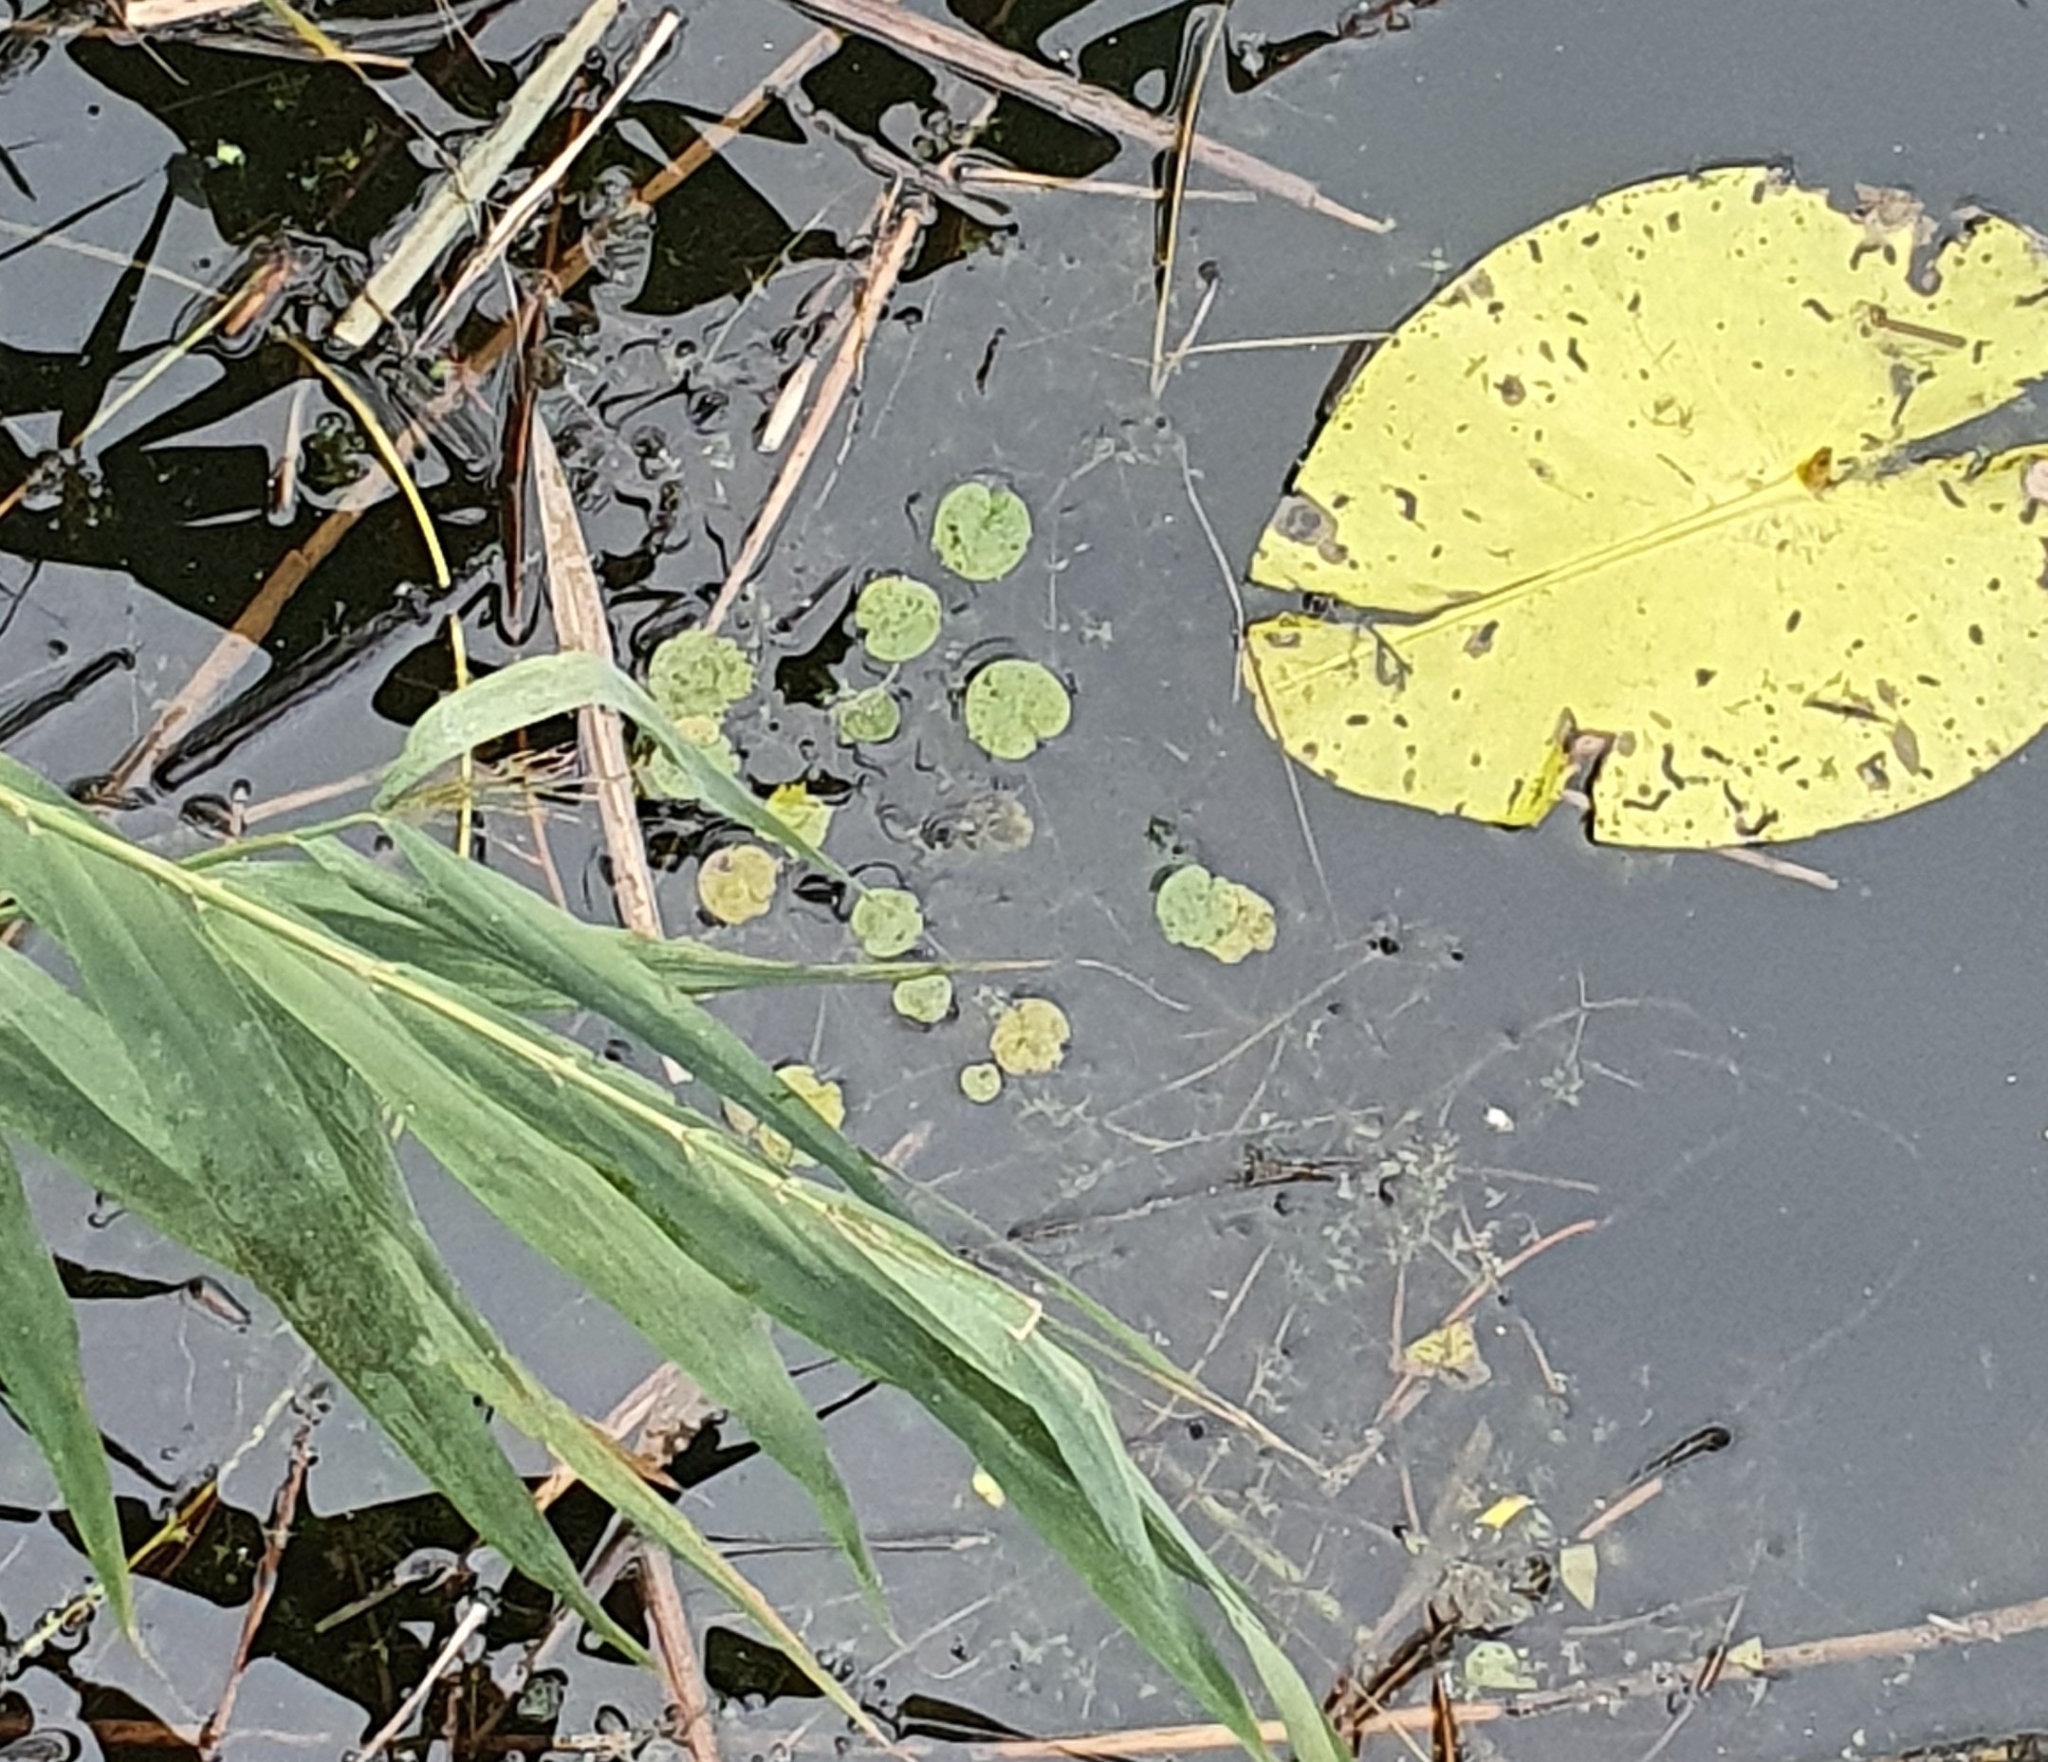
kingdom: Plantae
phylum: Tracheophyta
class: Liliopsida
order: Alismatales
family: Hydrocharitaceae
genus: Hydrocharis
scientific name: Hydrocharis morsus-ranae
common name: Frogbit
